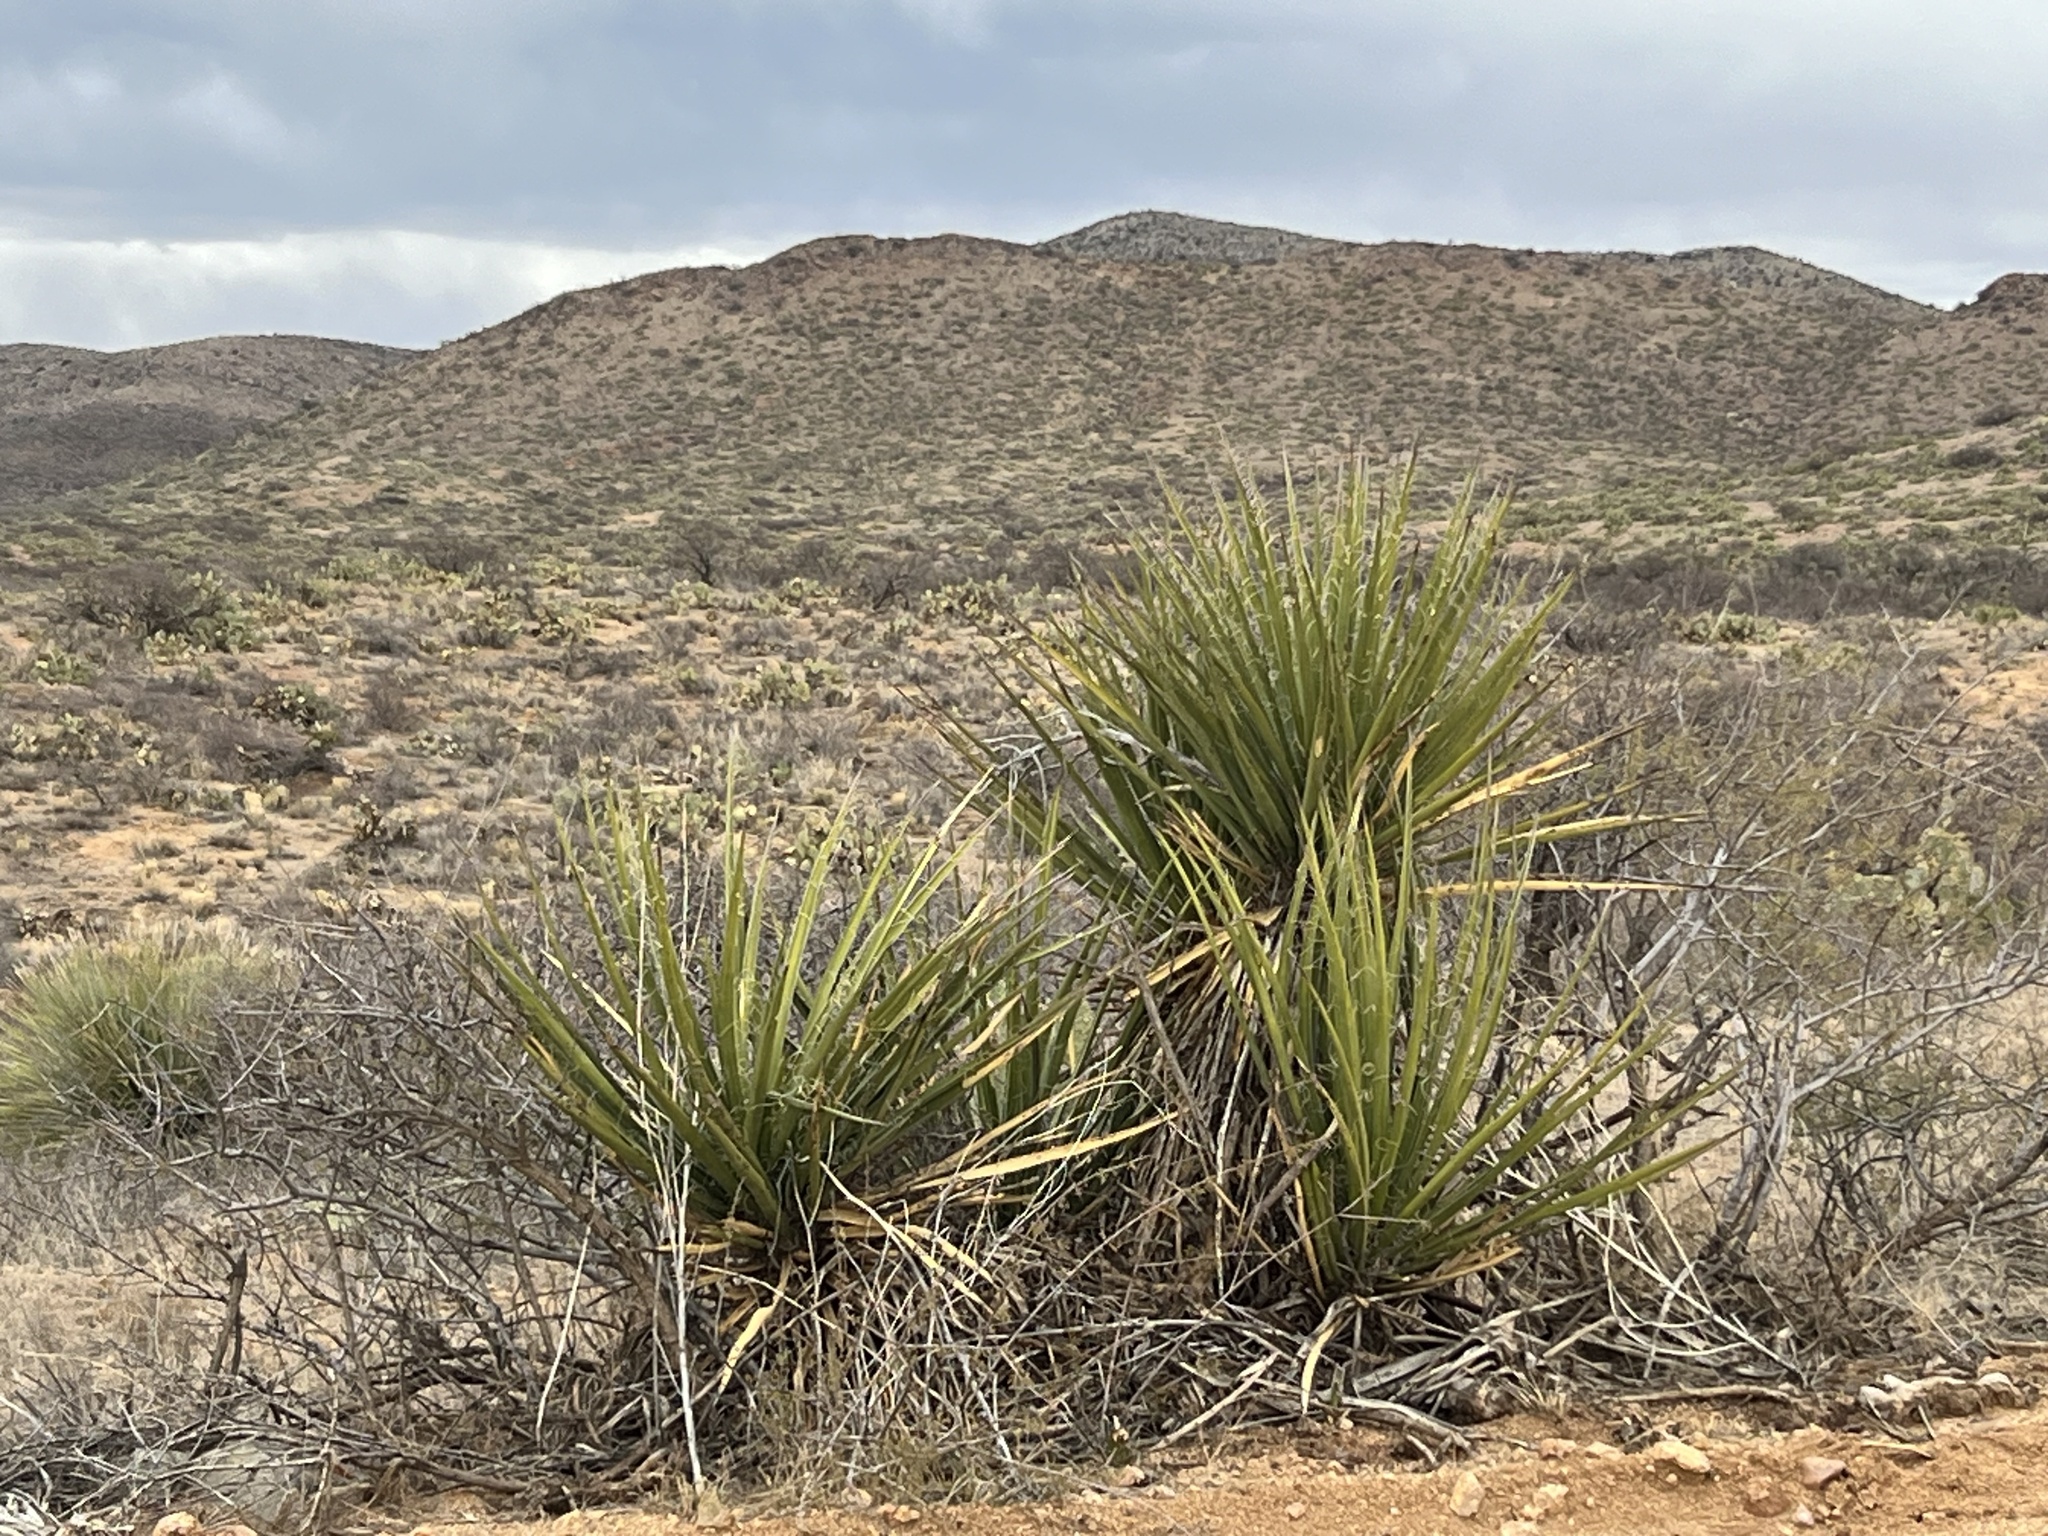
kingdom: Plantae
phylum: Tracheophyta
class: Liliopsida
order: Asparagales
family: Asparagaceae
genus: Yucca
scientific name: Yucca baccata
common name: Banana yucca
